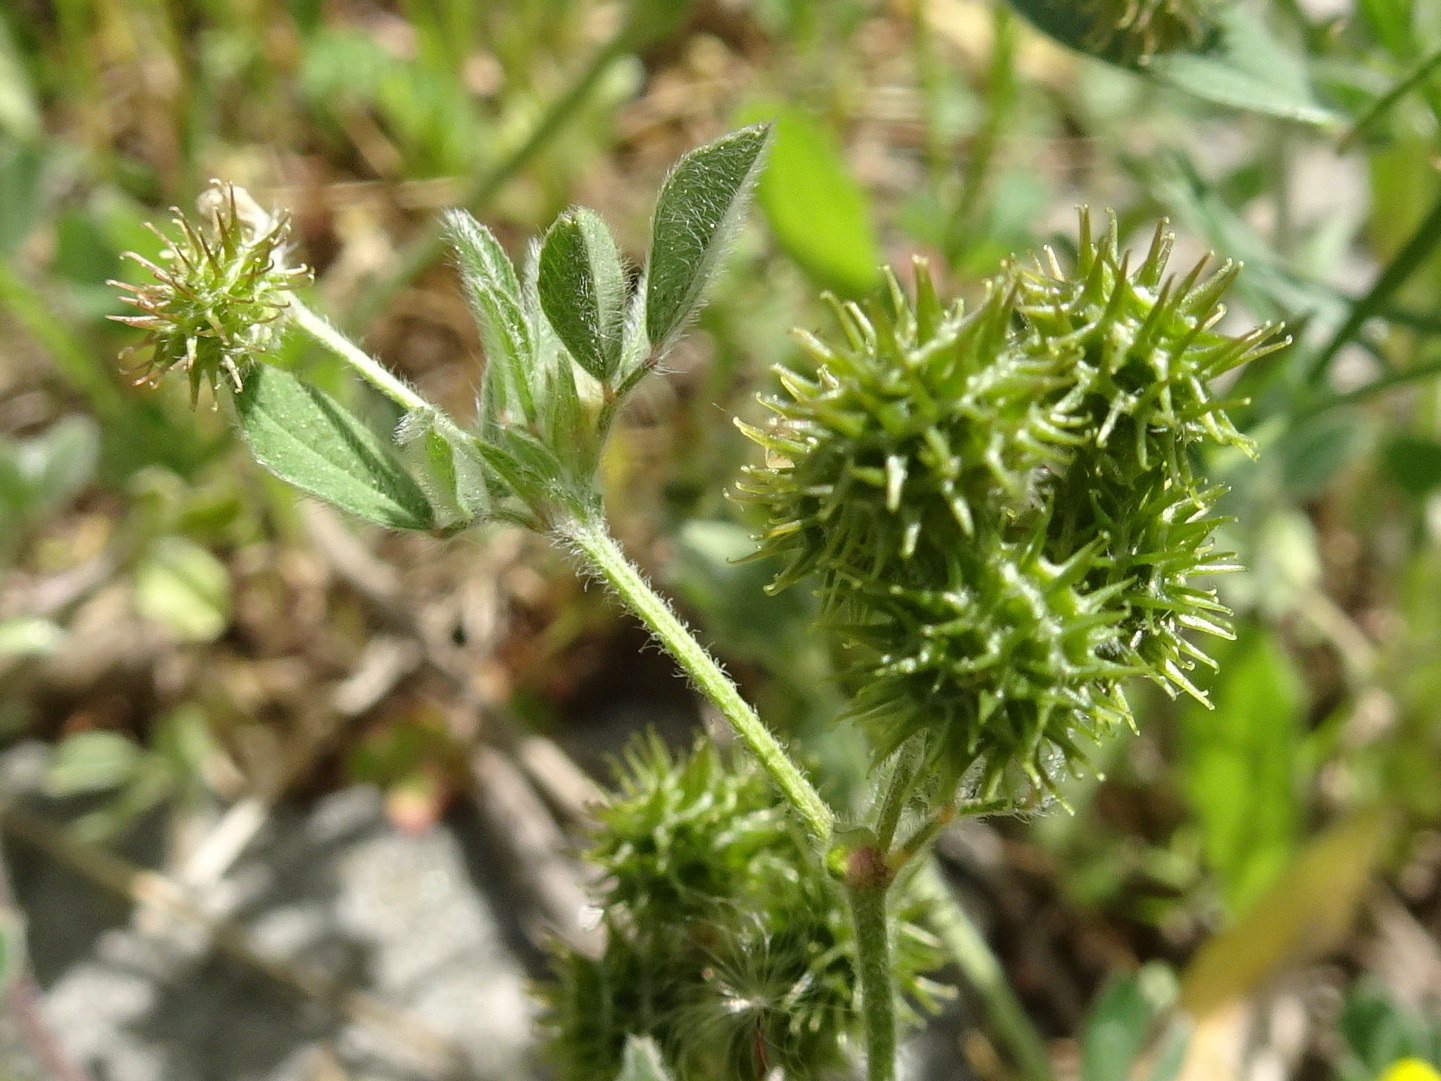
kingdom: Plantae
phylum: Tracheophyta
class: Magnoliopsida
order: Fabales
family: Fabaceae
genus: Medicago
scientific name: Medicago minima
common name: Little bur-clover
